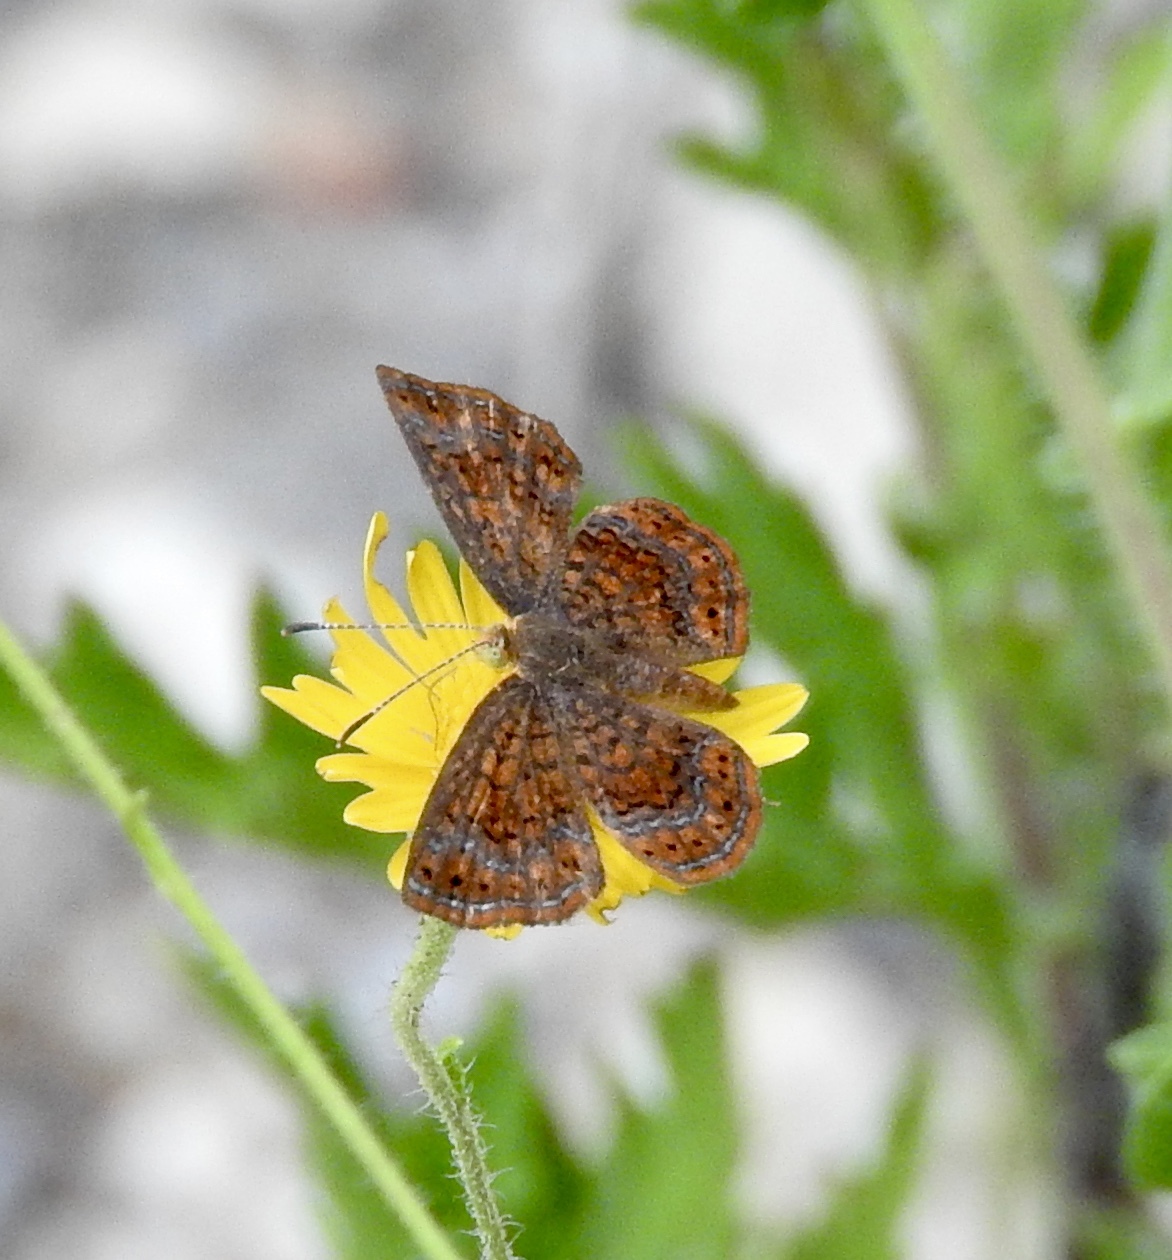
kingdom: Animalia
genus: Calephelis
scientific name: Calephelis perditalis
